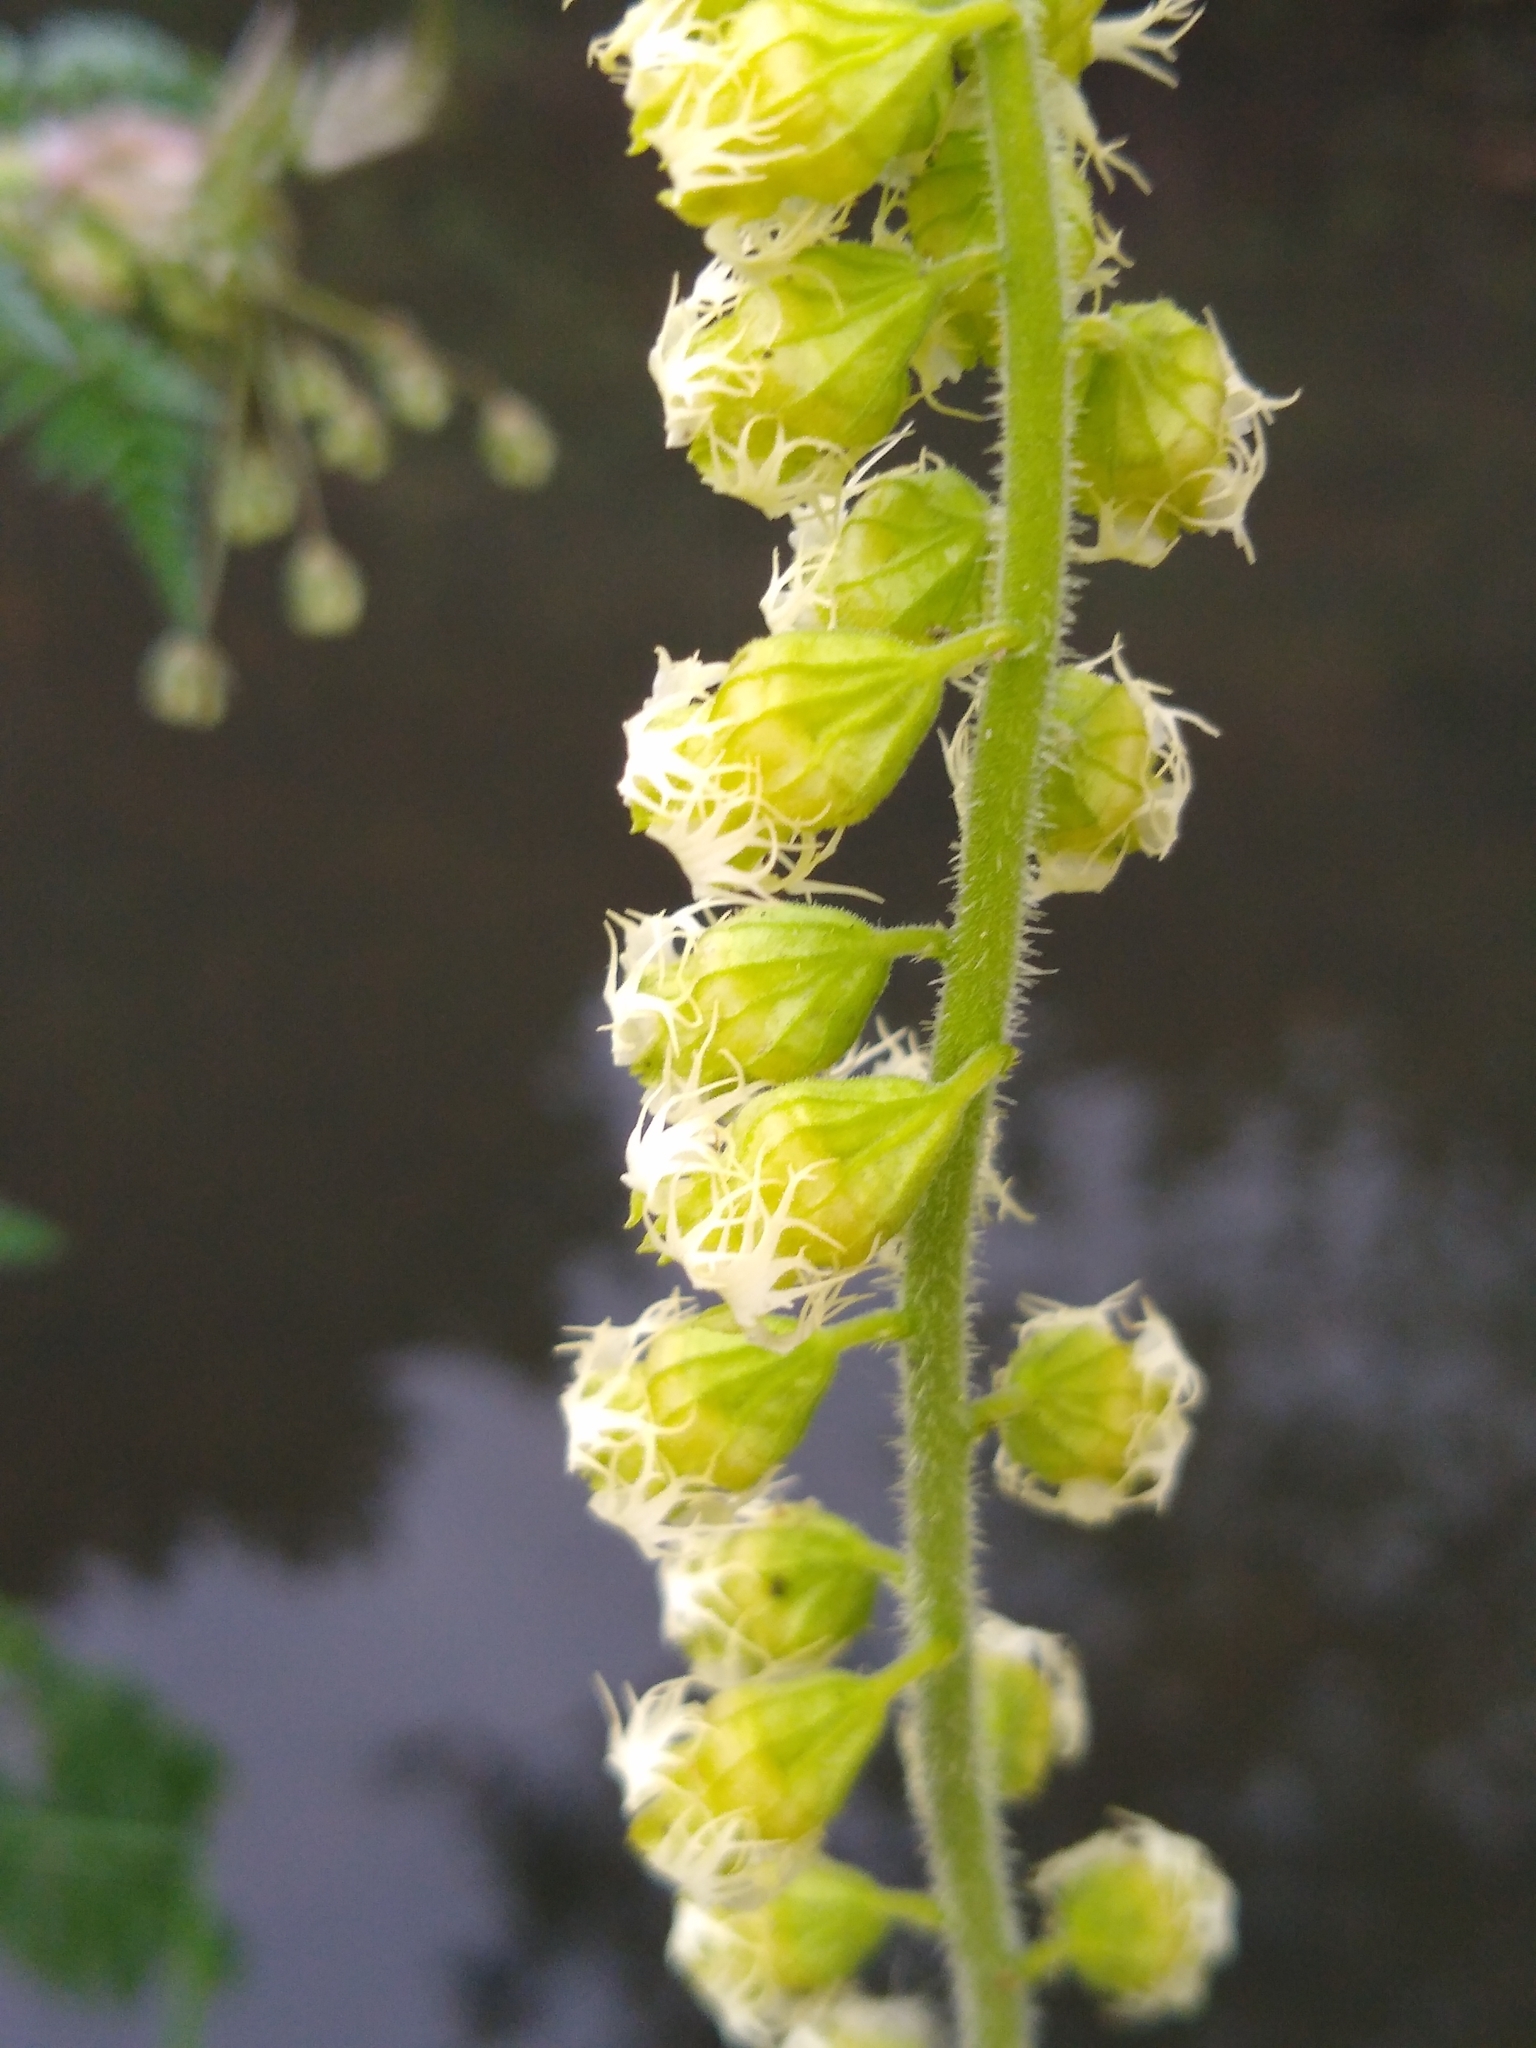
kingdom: Plantae
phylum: Tracheophyta
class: Magnoliopsida
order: Saxifragales
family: Saxifragaceae
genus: Tellima
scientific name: Tellima grandiflora
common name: Fringecups
